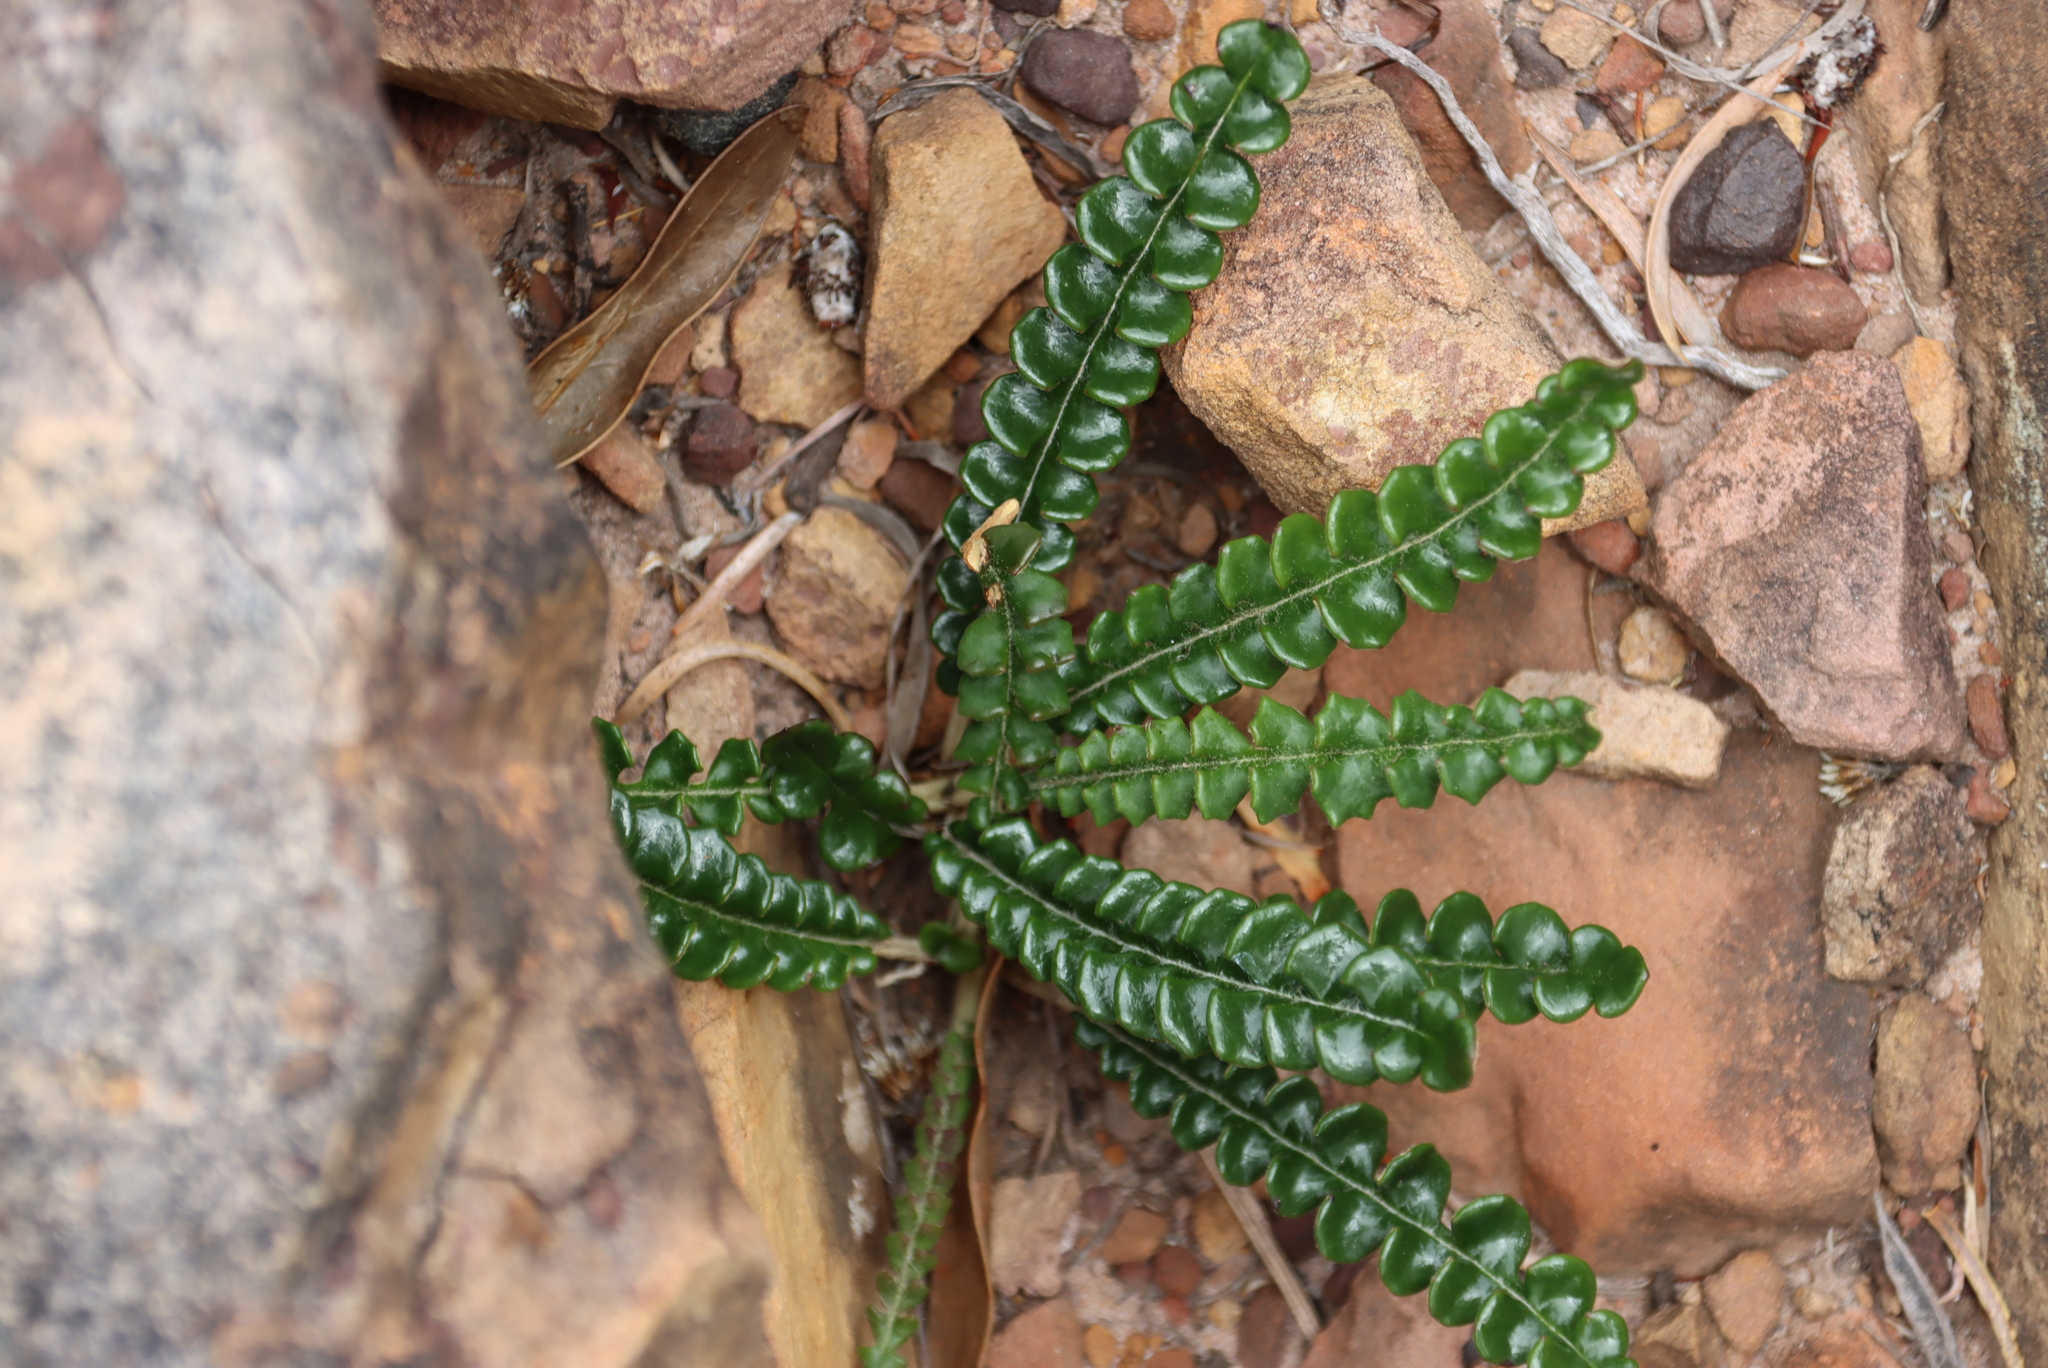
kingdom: Plantae
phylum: Tracheophyta
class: Magnoliopsida
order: Asterales
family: Asteraceae
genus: Gerbera
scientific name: Gerbera linnaei
